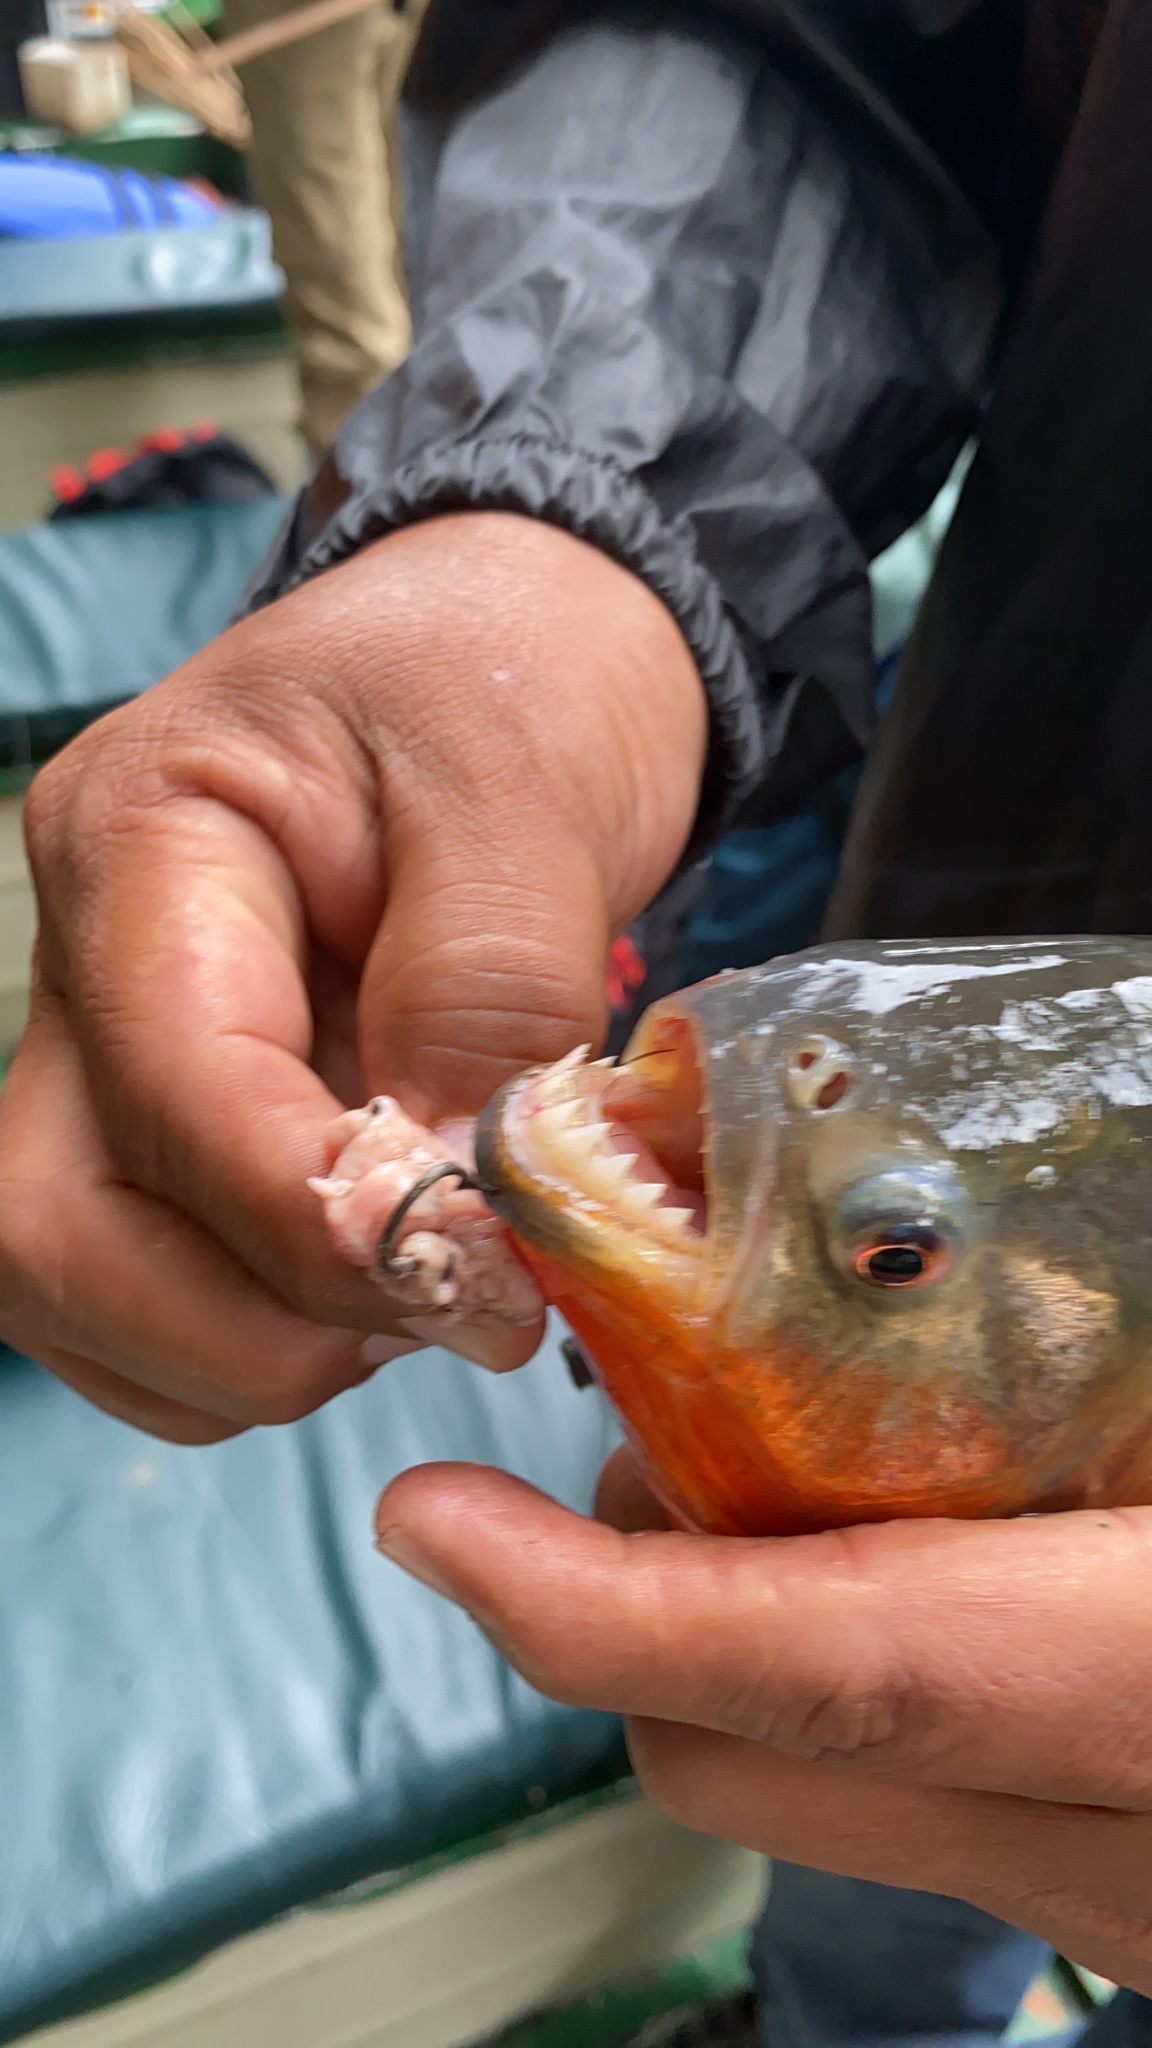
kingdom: Animalia
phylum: Chordata
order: Characiformes
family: Serrasalmidae
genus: Pygocentrus
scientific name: Pygocentrus nattereri
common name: Piranha
